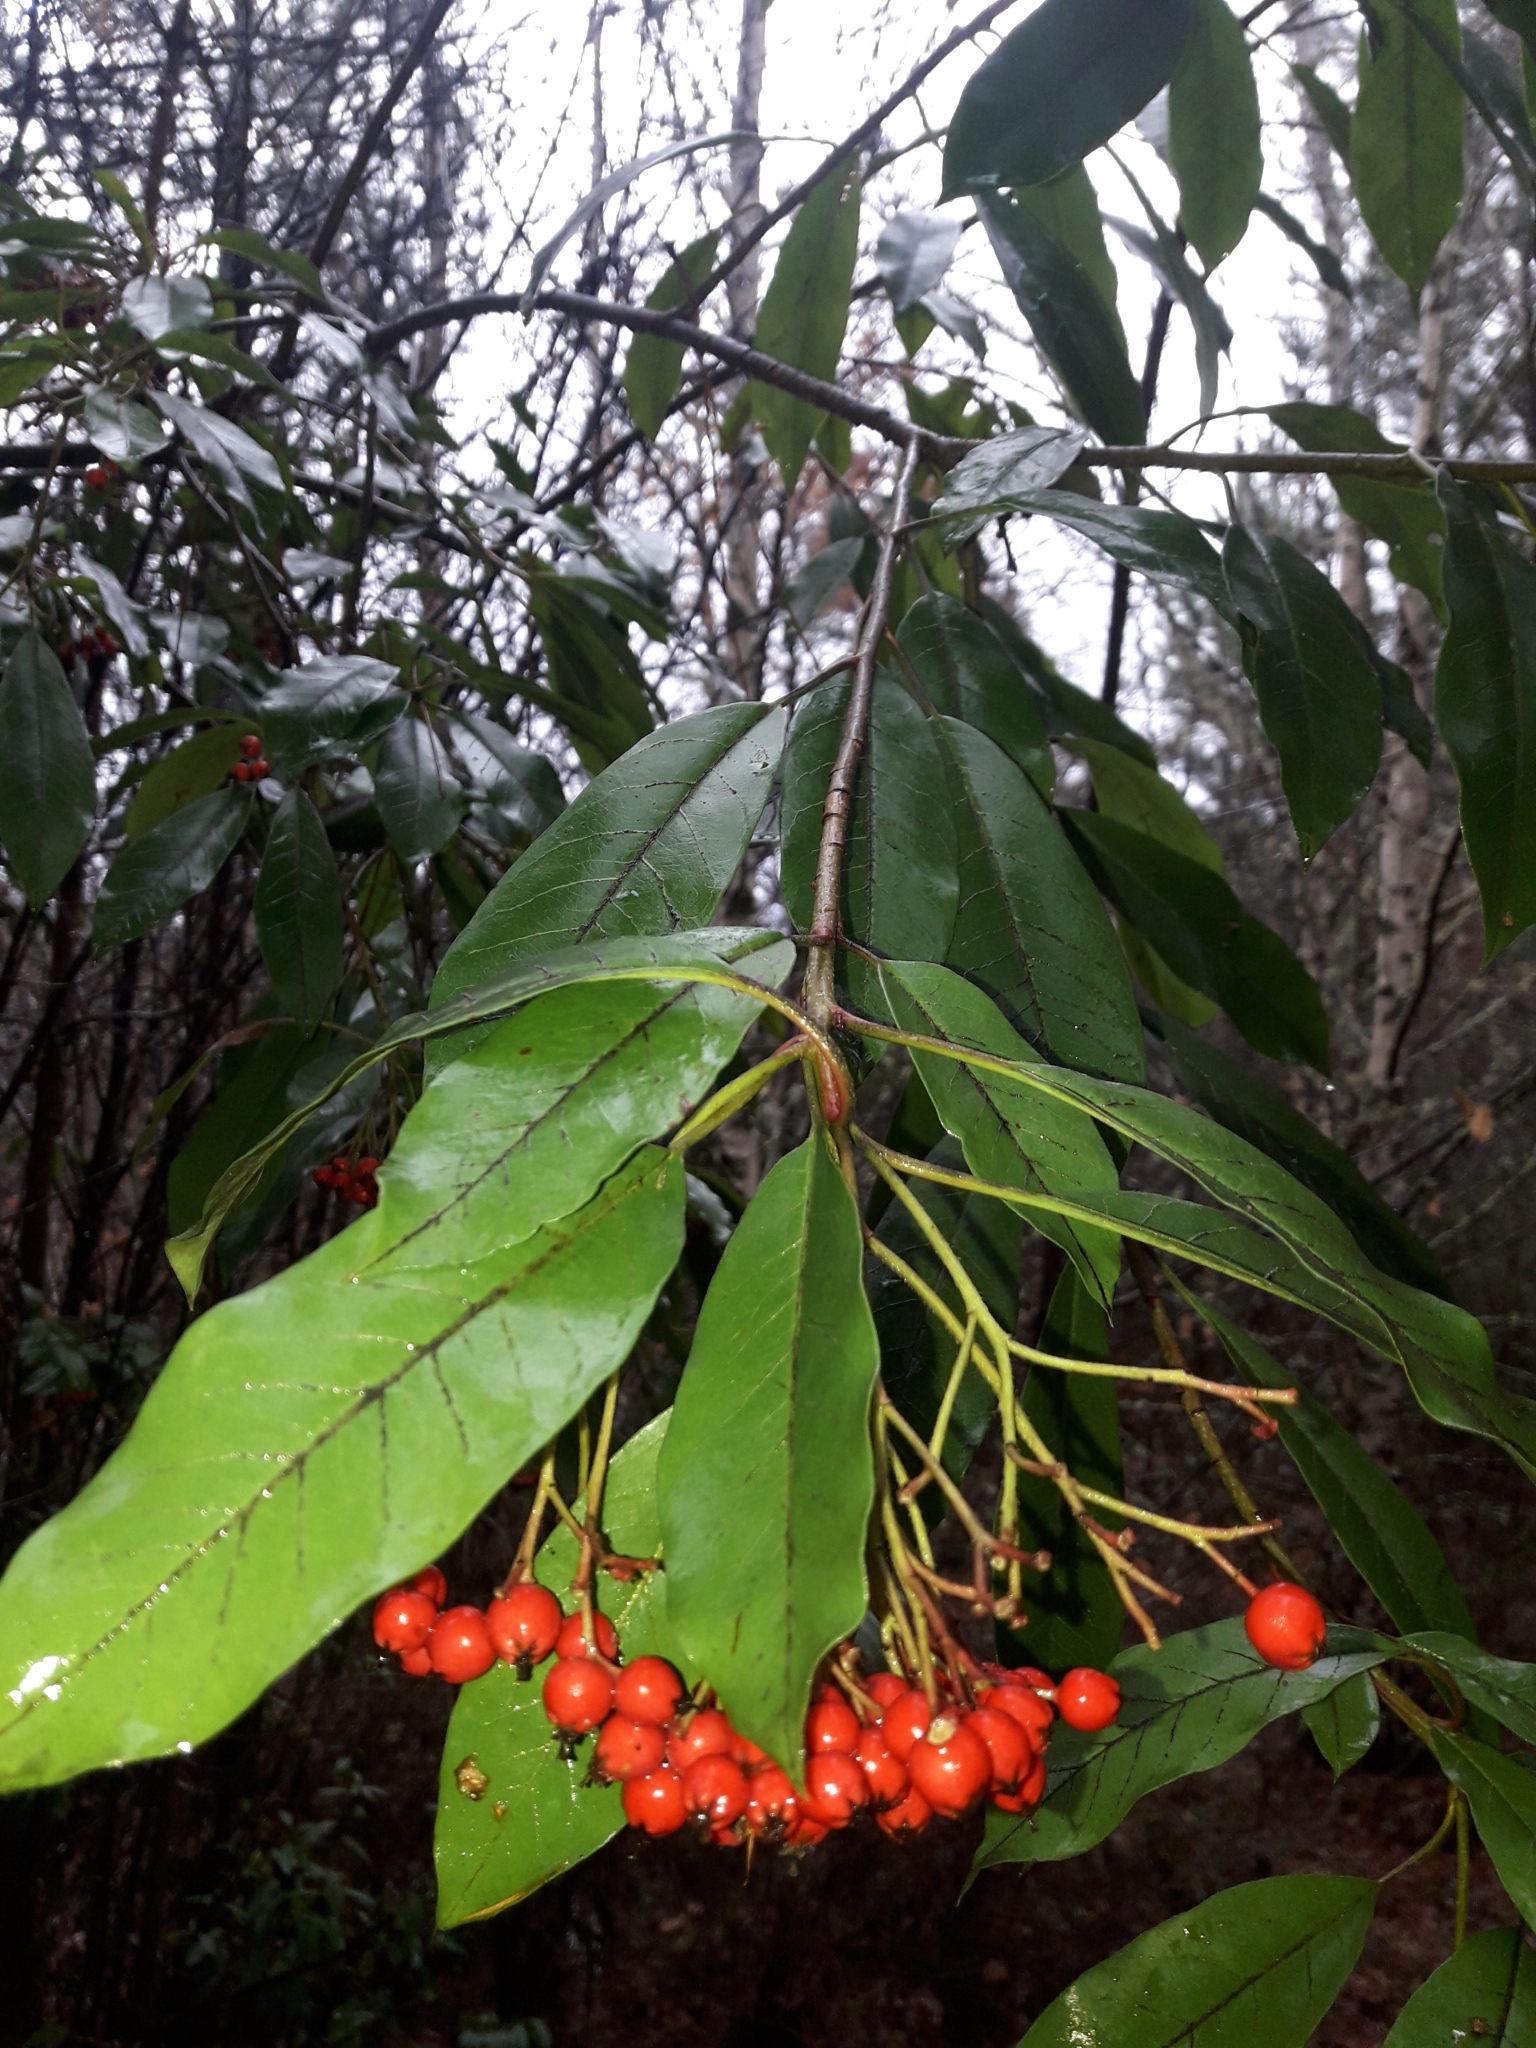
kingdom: Plantae
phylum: Tracheophyta
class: Magnoliopsida
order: Rosales
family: Rosaceae
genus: Stranvaesia
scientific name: Stranvaesia davidiana
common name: Chinese photinia
